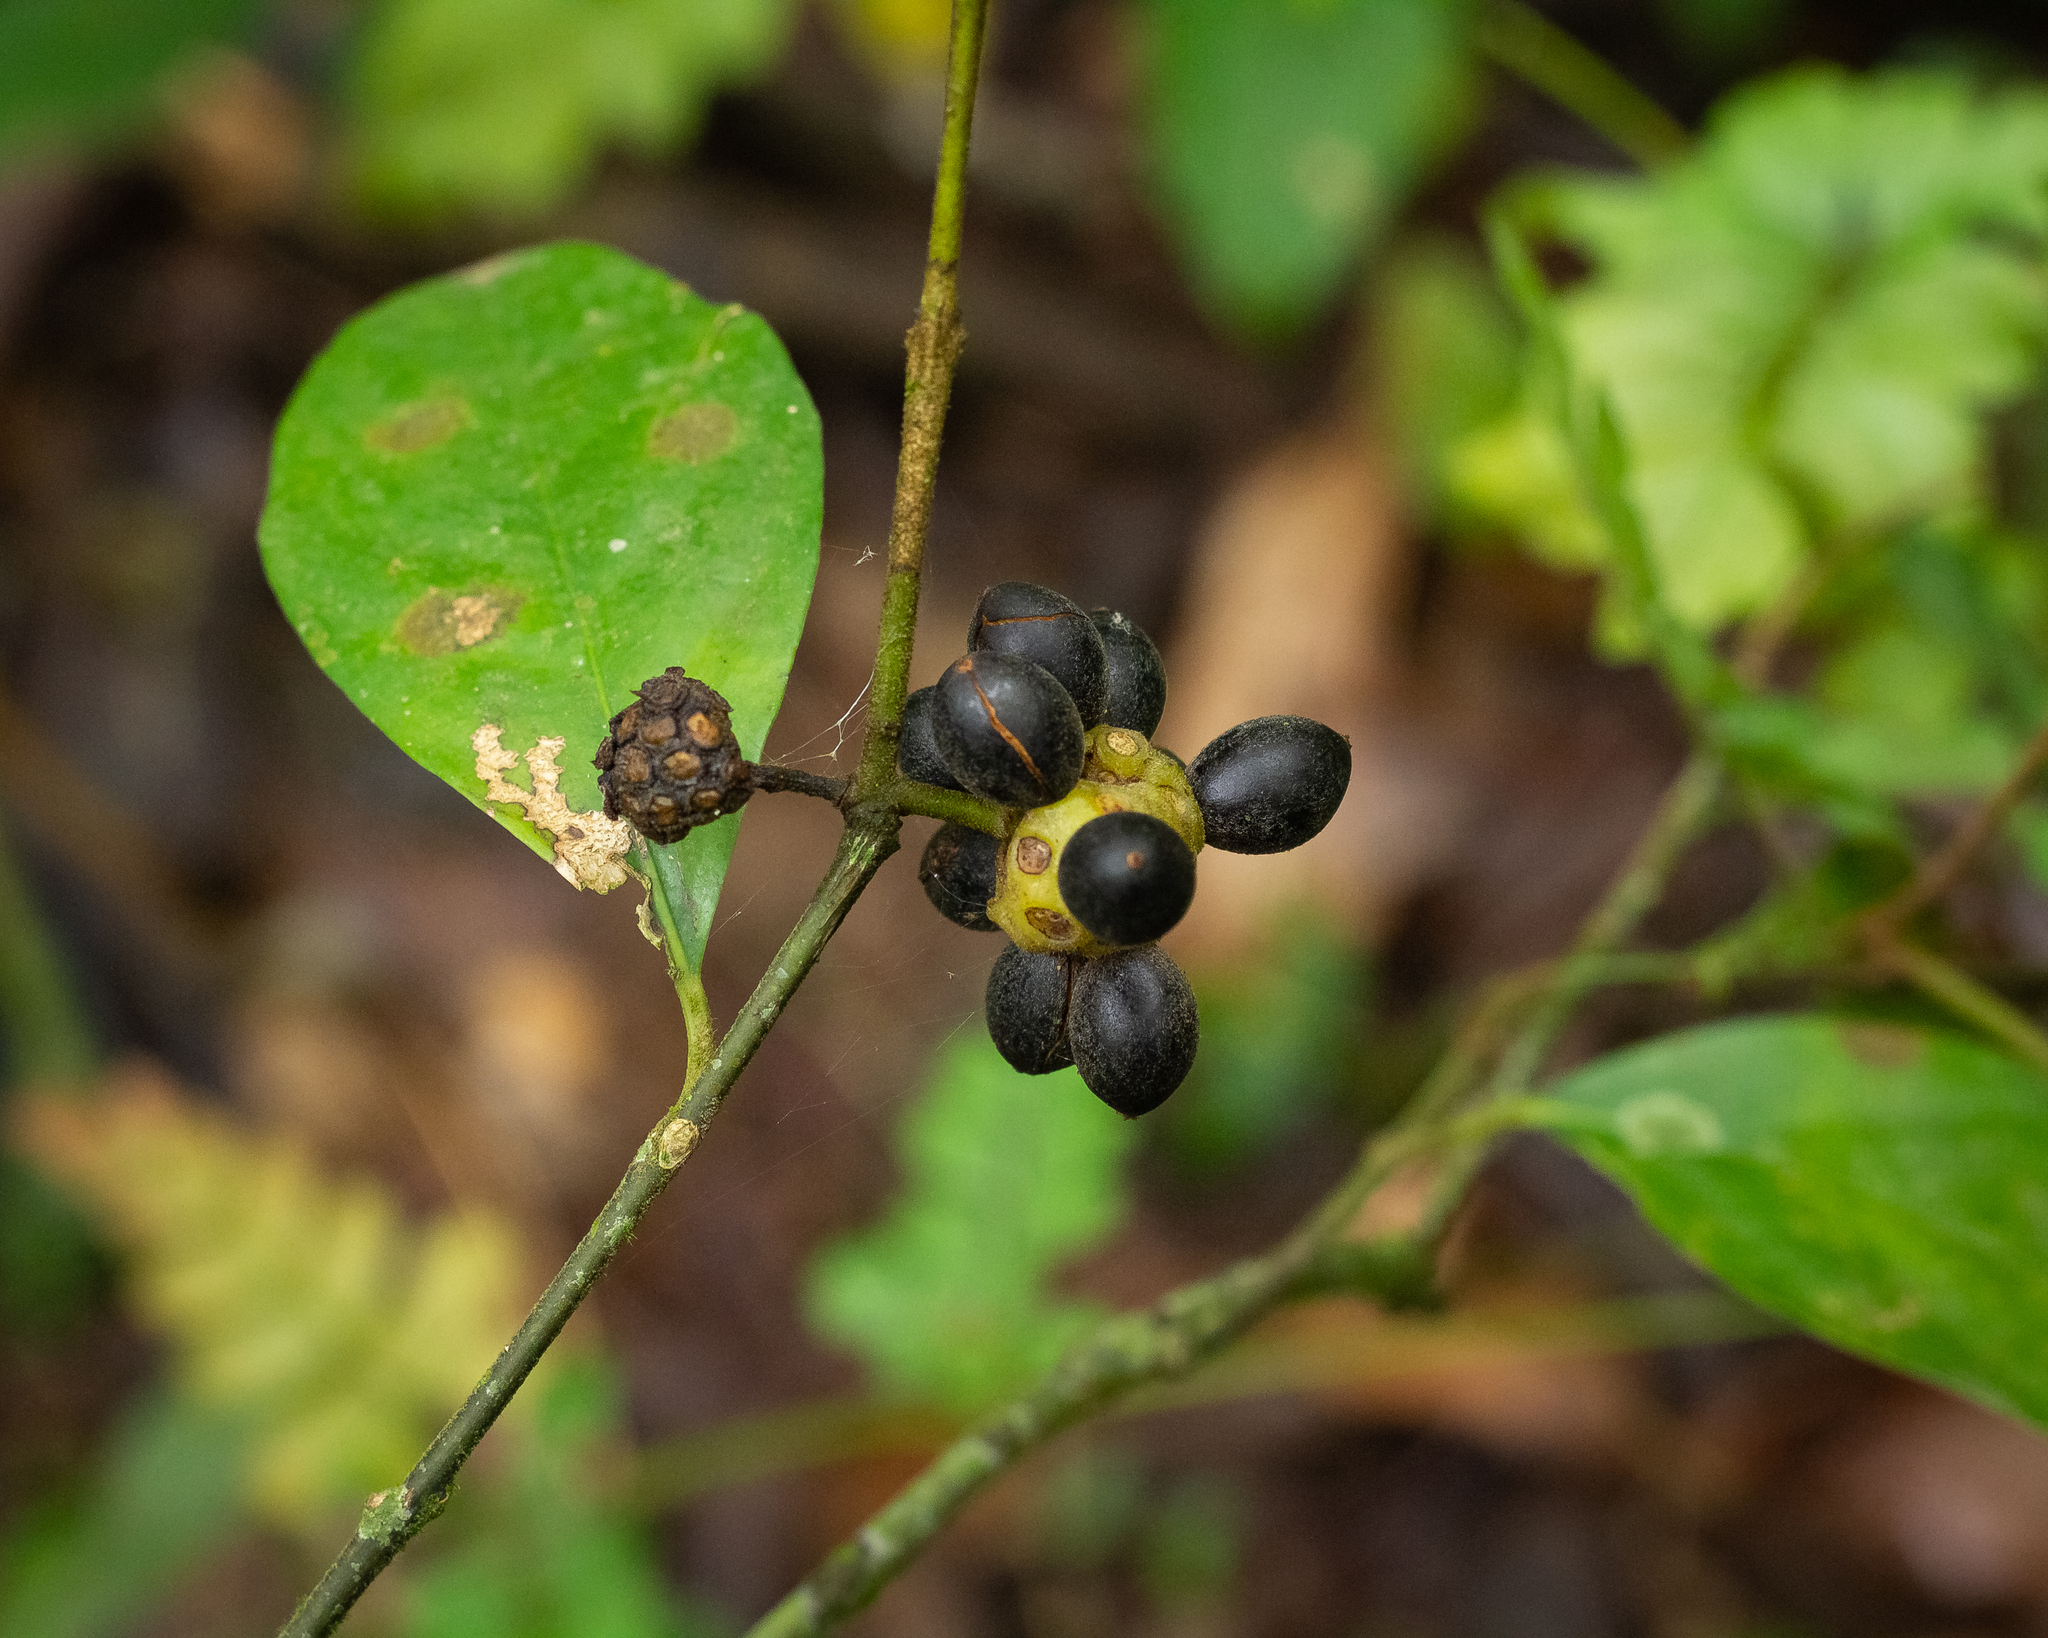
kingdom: Plantae
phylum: Tracheophyta
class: Magnoliopsida
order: Laurales
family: Monimiaceae
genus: Mollinedia
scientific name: Mollinedia umbellata
